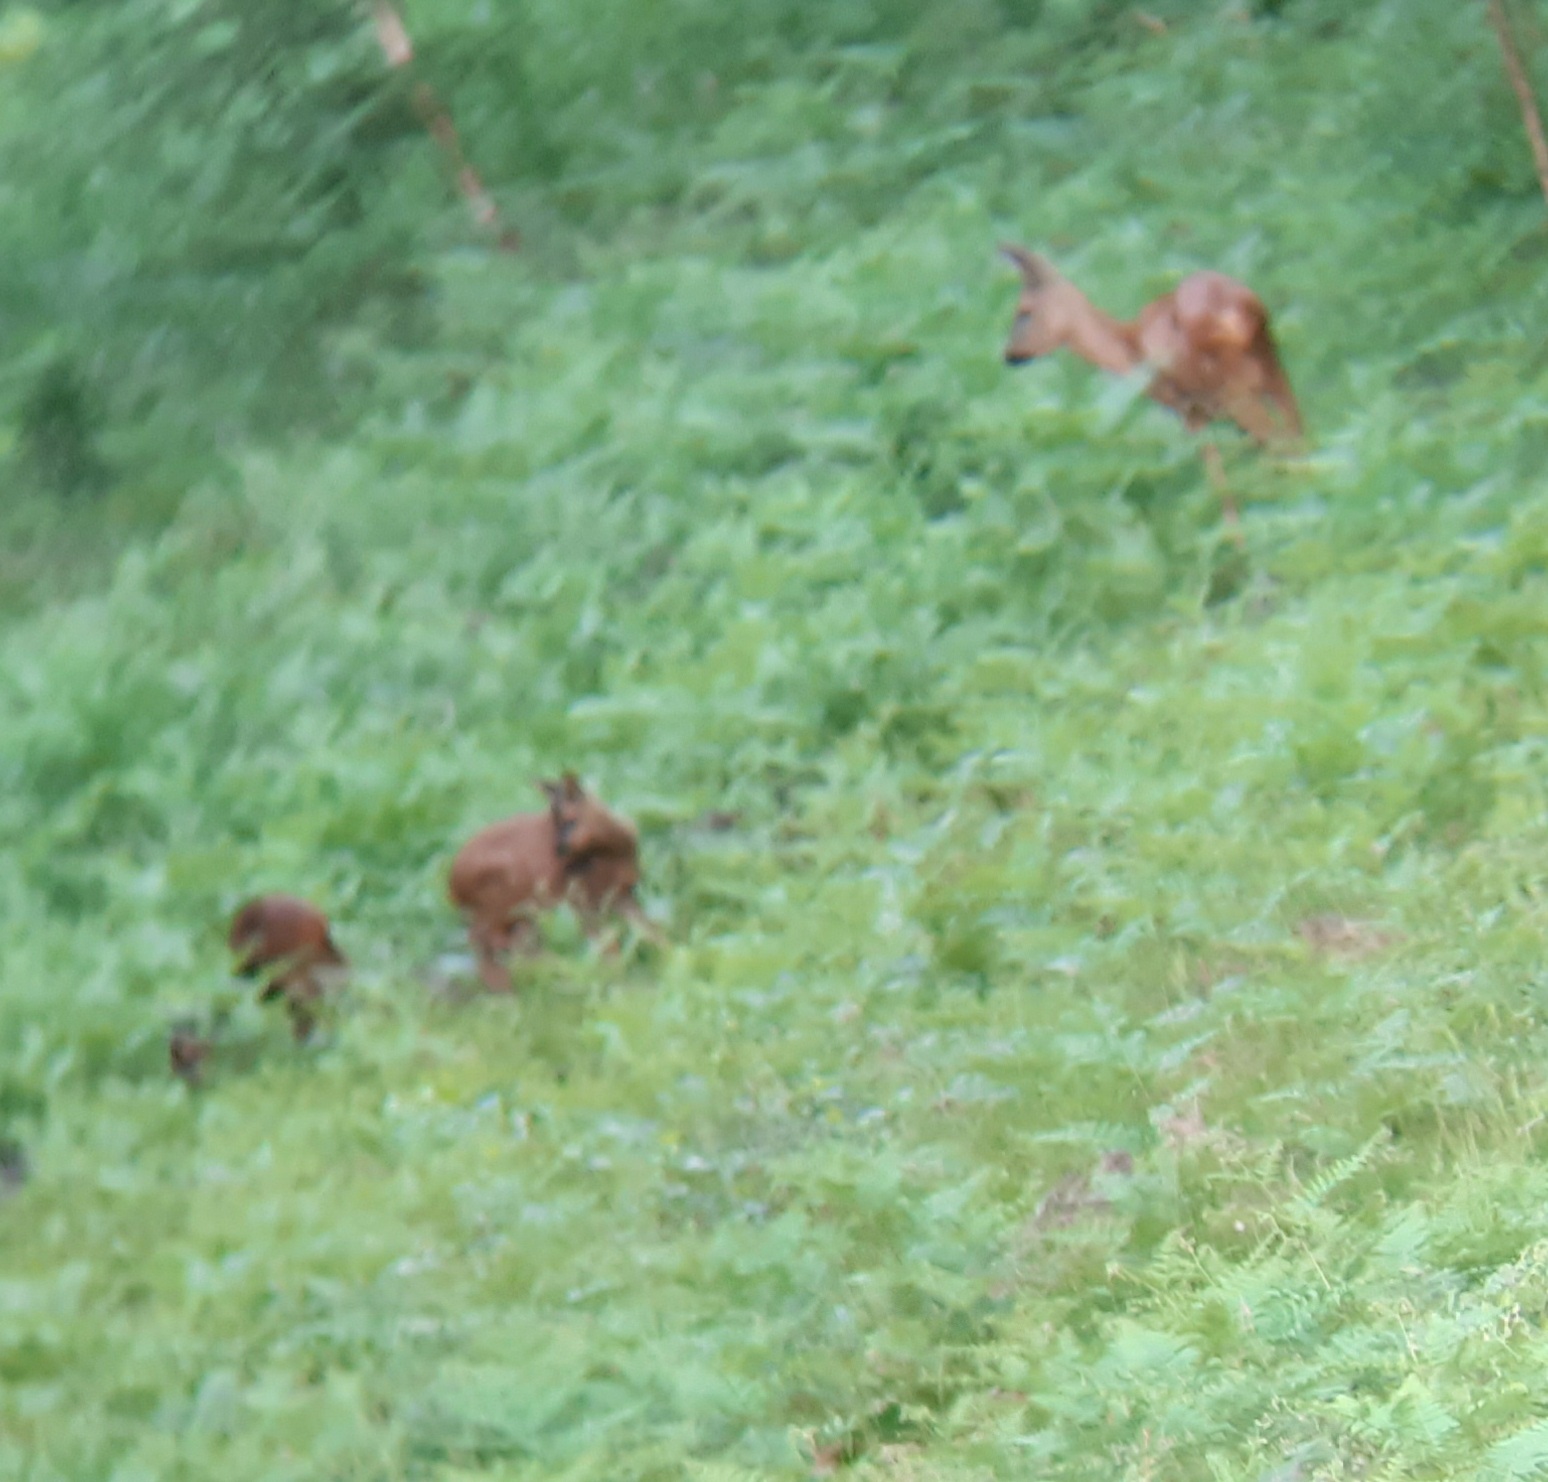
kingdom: Animalia
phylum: Chordata
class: Mammalia
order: Artiodactyla
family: Cervidae
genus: Capreolus
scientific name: Capreolus capreolus
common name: Western roe deer
